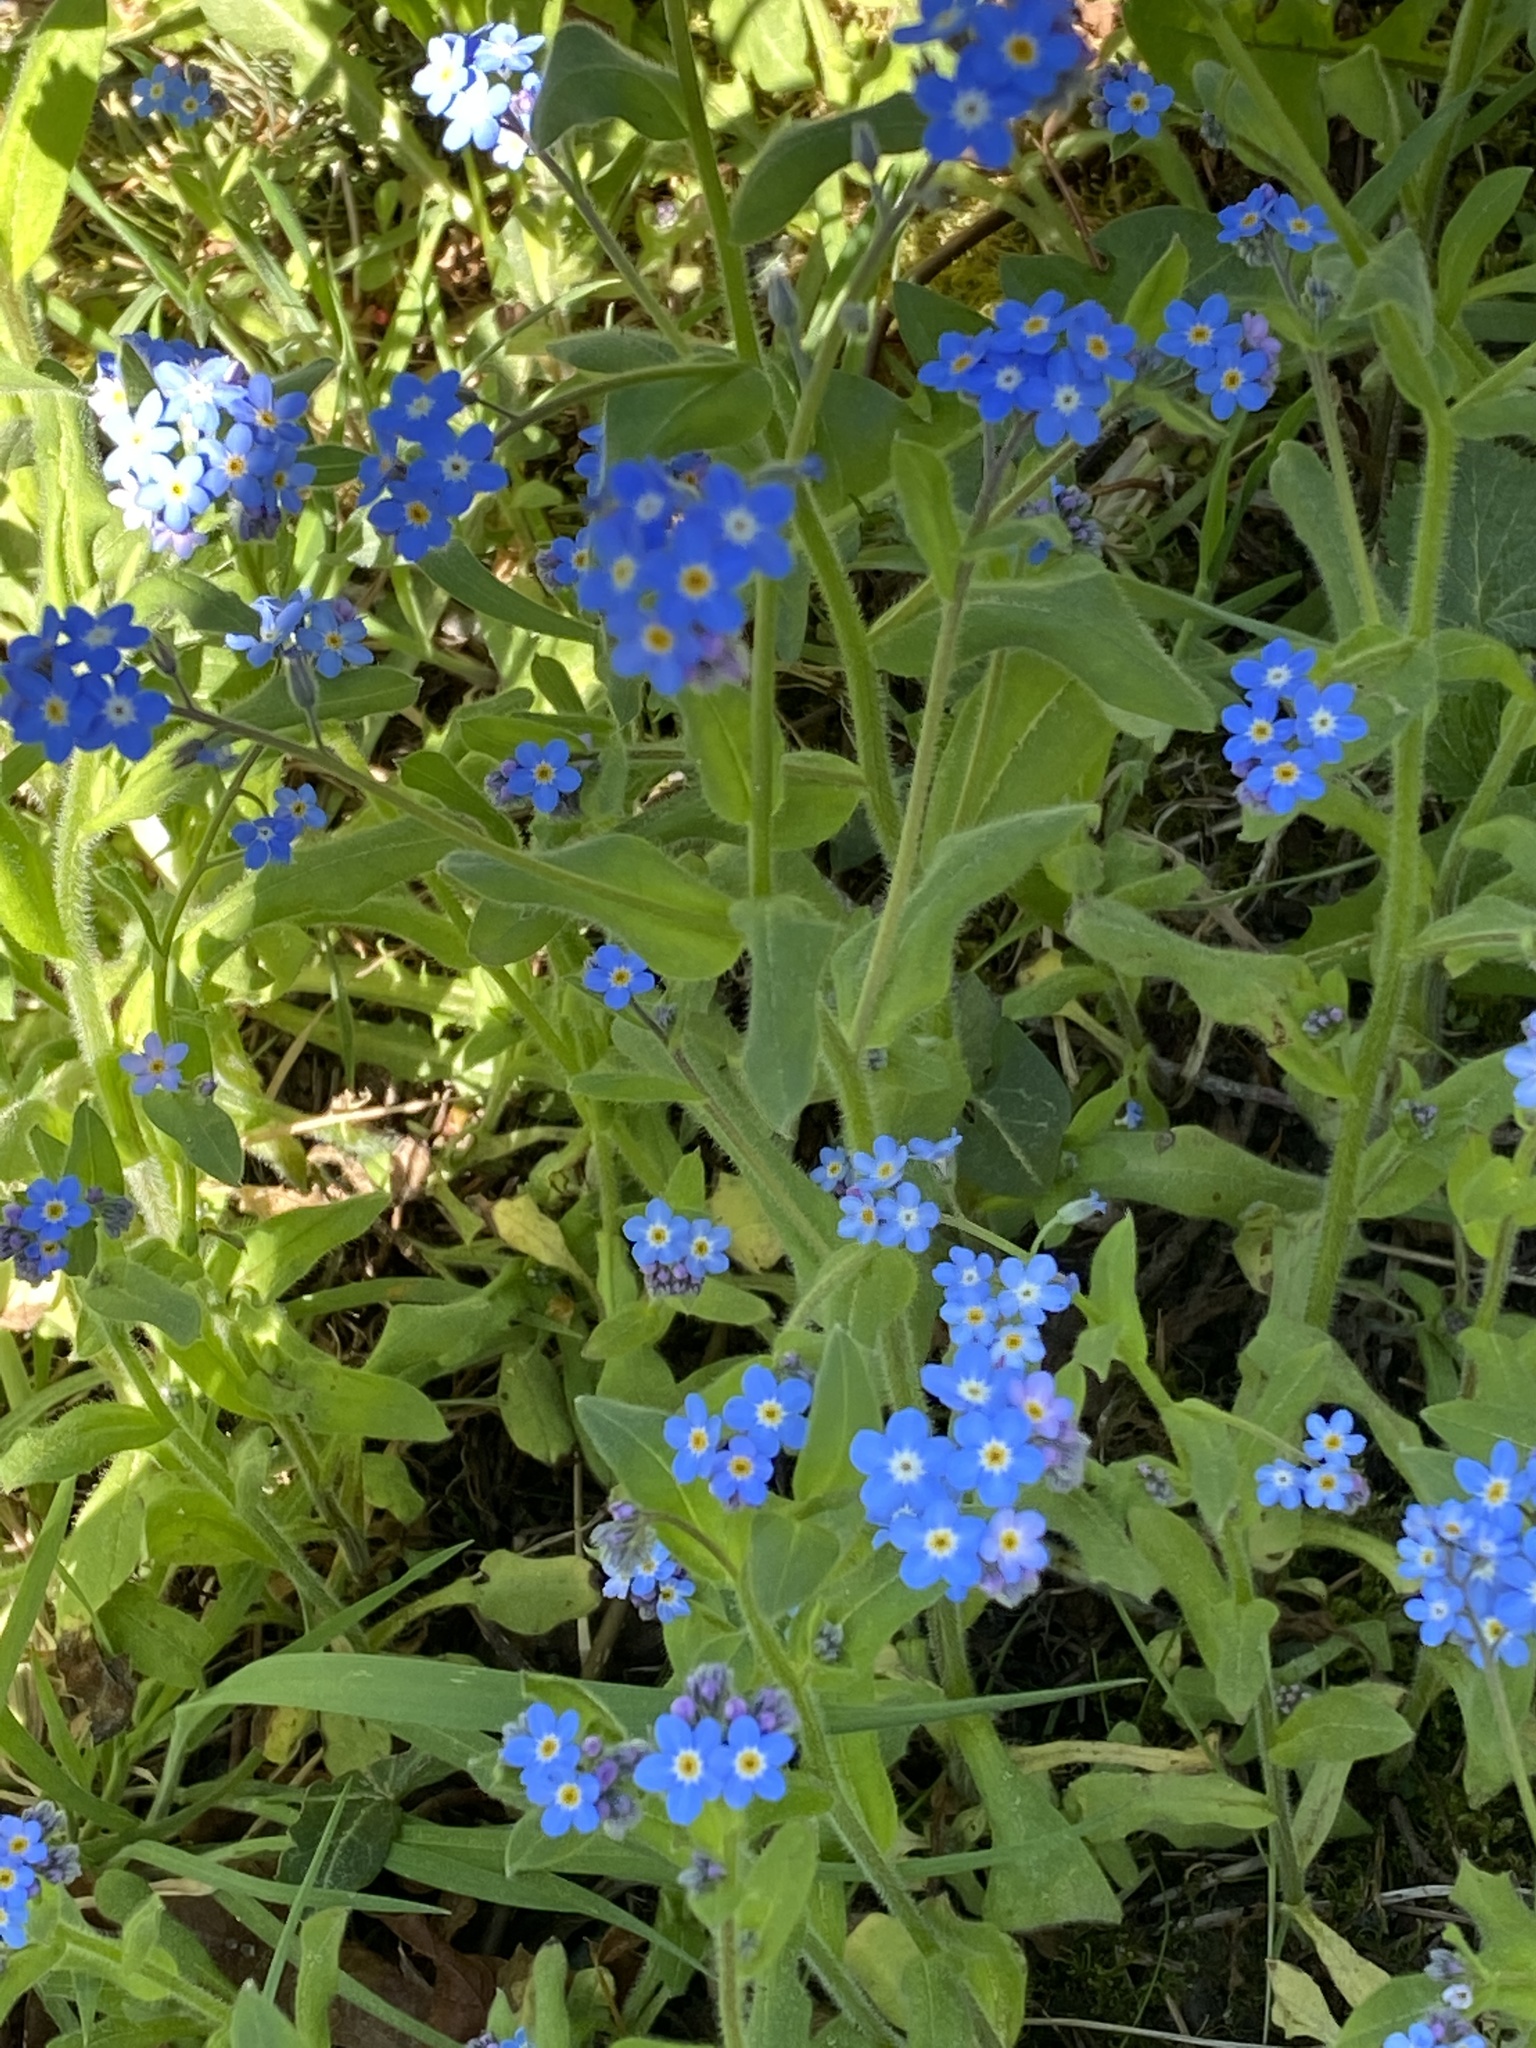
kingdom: Plantae
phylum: Tracheophyta
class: Magnoliopsida
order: Boraginales
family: Boraginaceae
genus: Myosotis
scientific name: Myosotis sylvatica
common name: Wood forget-me-not
